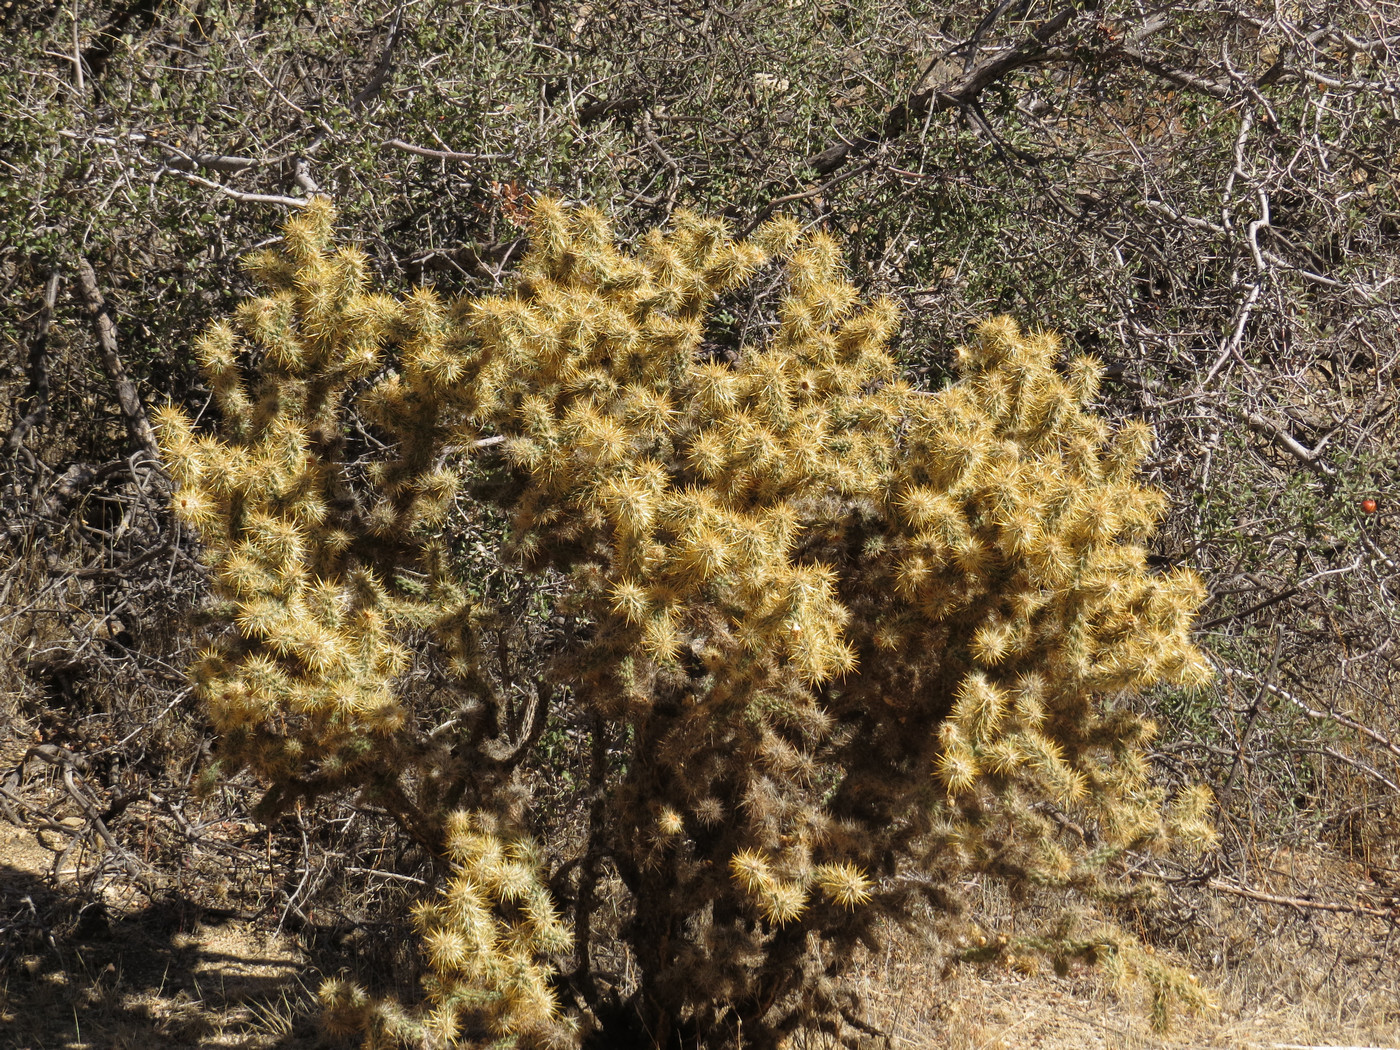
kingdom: Plantae
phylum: Tracheophyta
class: Magnoliopsida
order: Caryophyllales
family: Cactaceae
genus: Cylindropuntia
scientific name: Cylindropuntia echinocarpa
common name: Ground cholla
